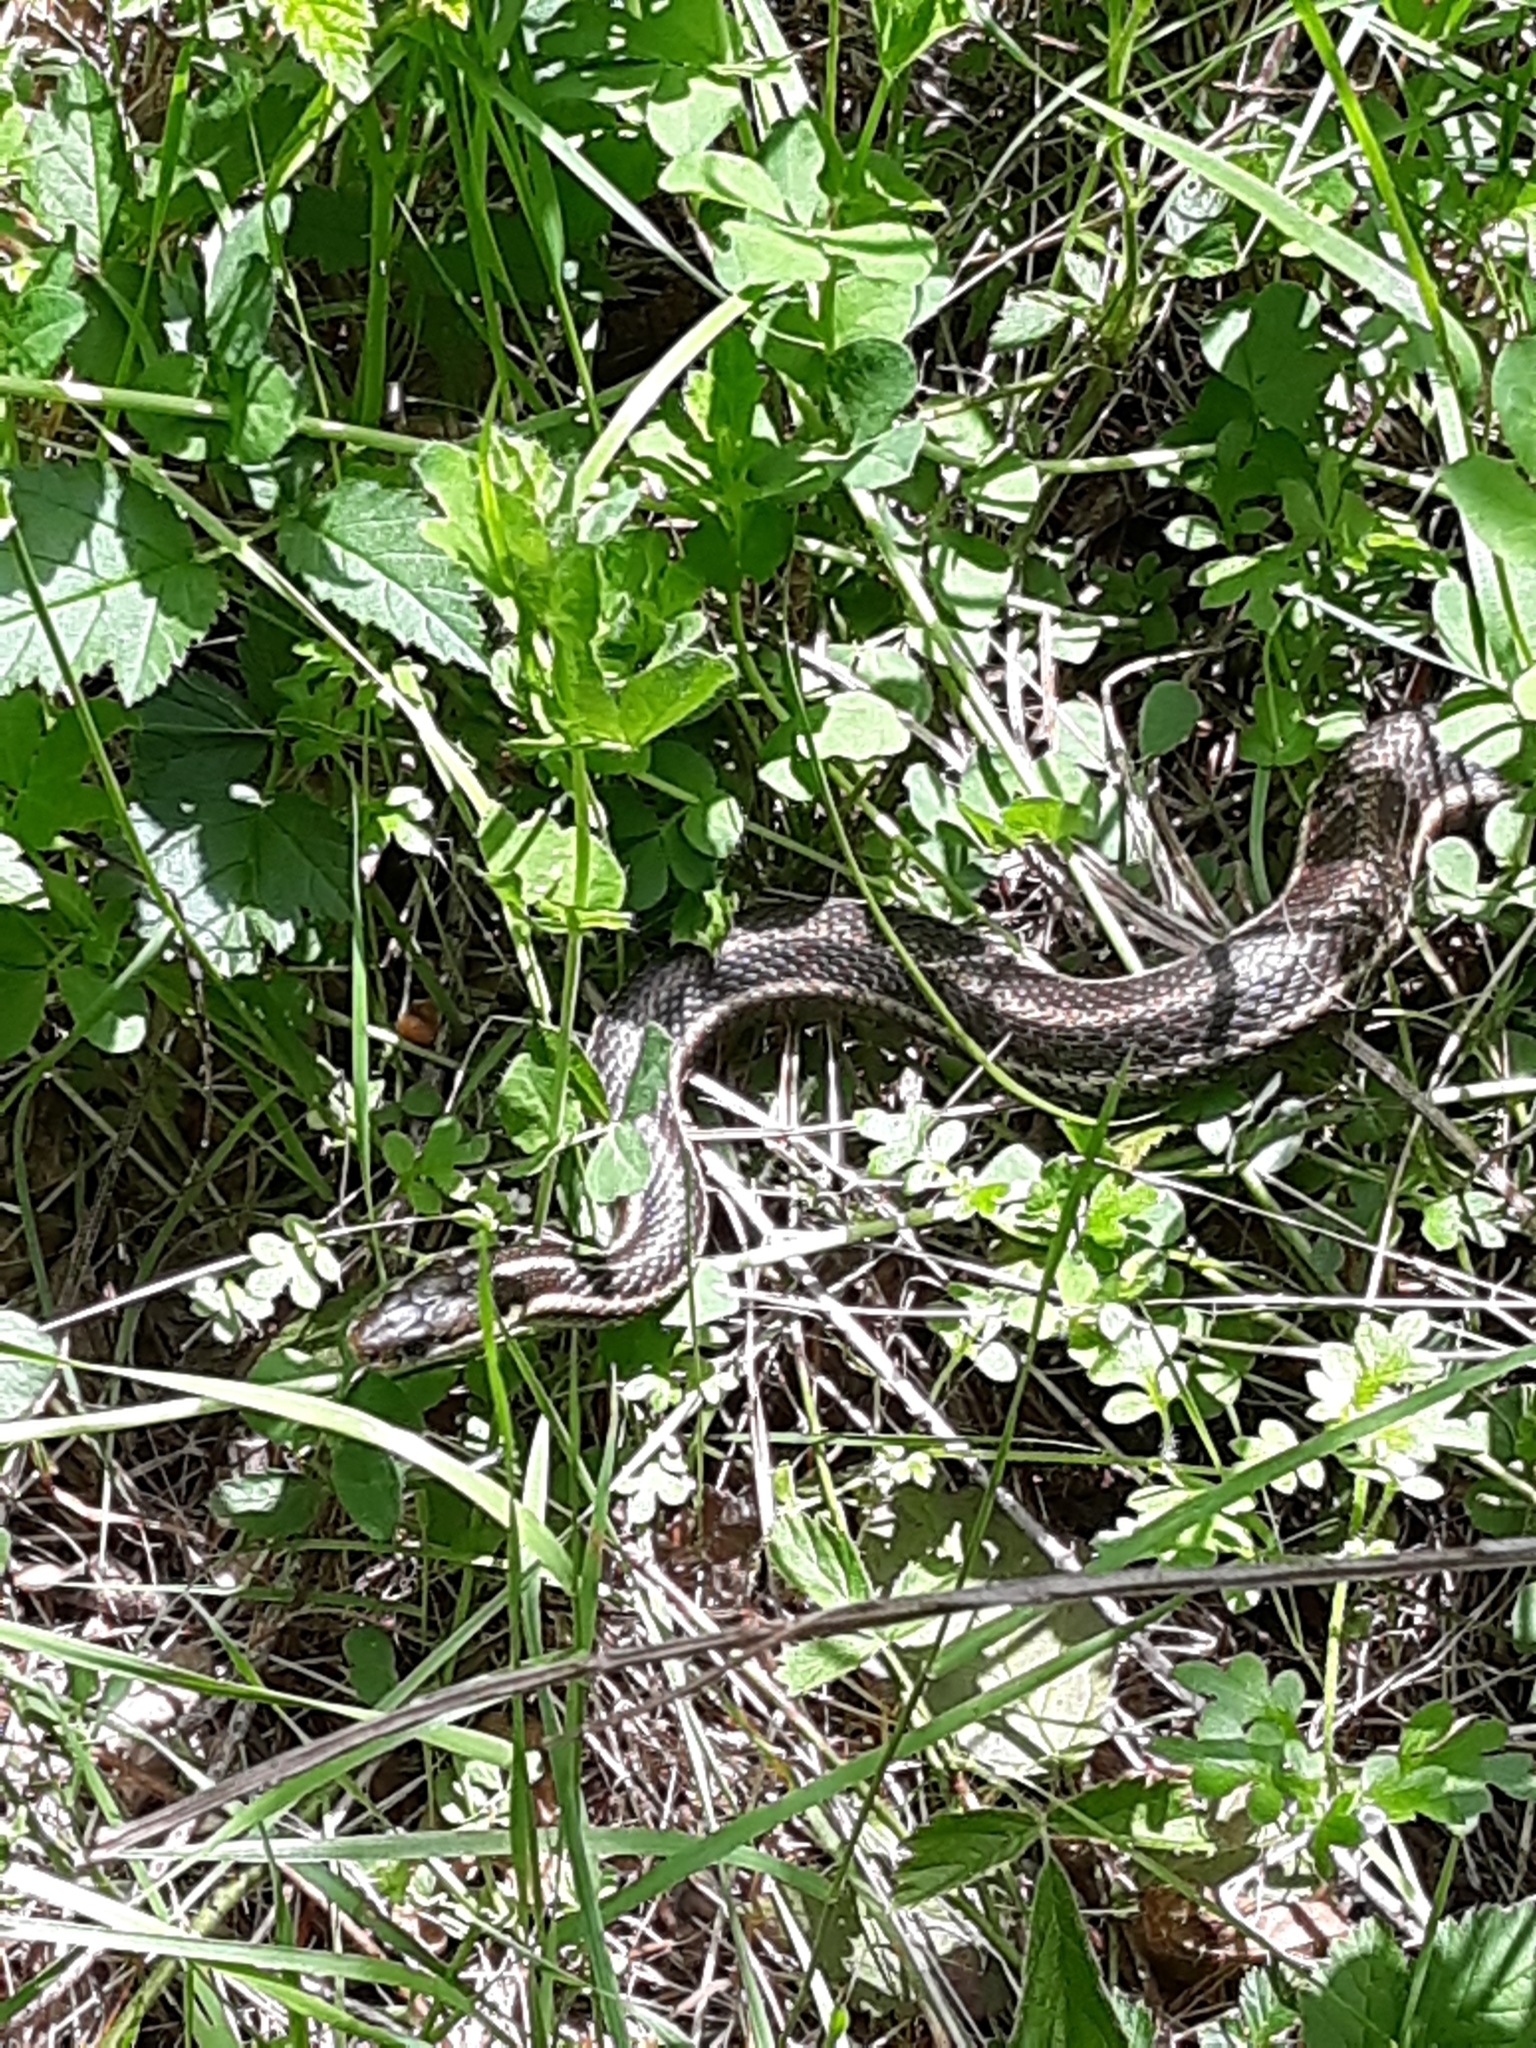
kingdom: Animalia
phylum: Chordata
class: Squamata
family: Colubridae
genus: Thamnophis
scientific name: Thamnophis ordinoides
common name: Northwestern garter snake
